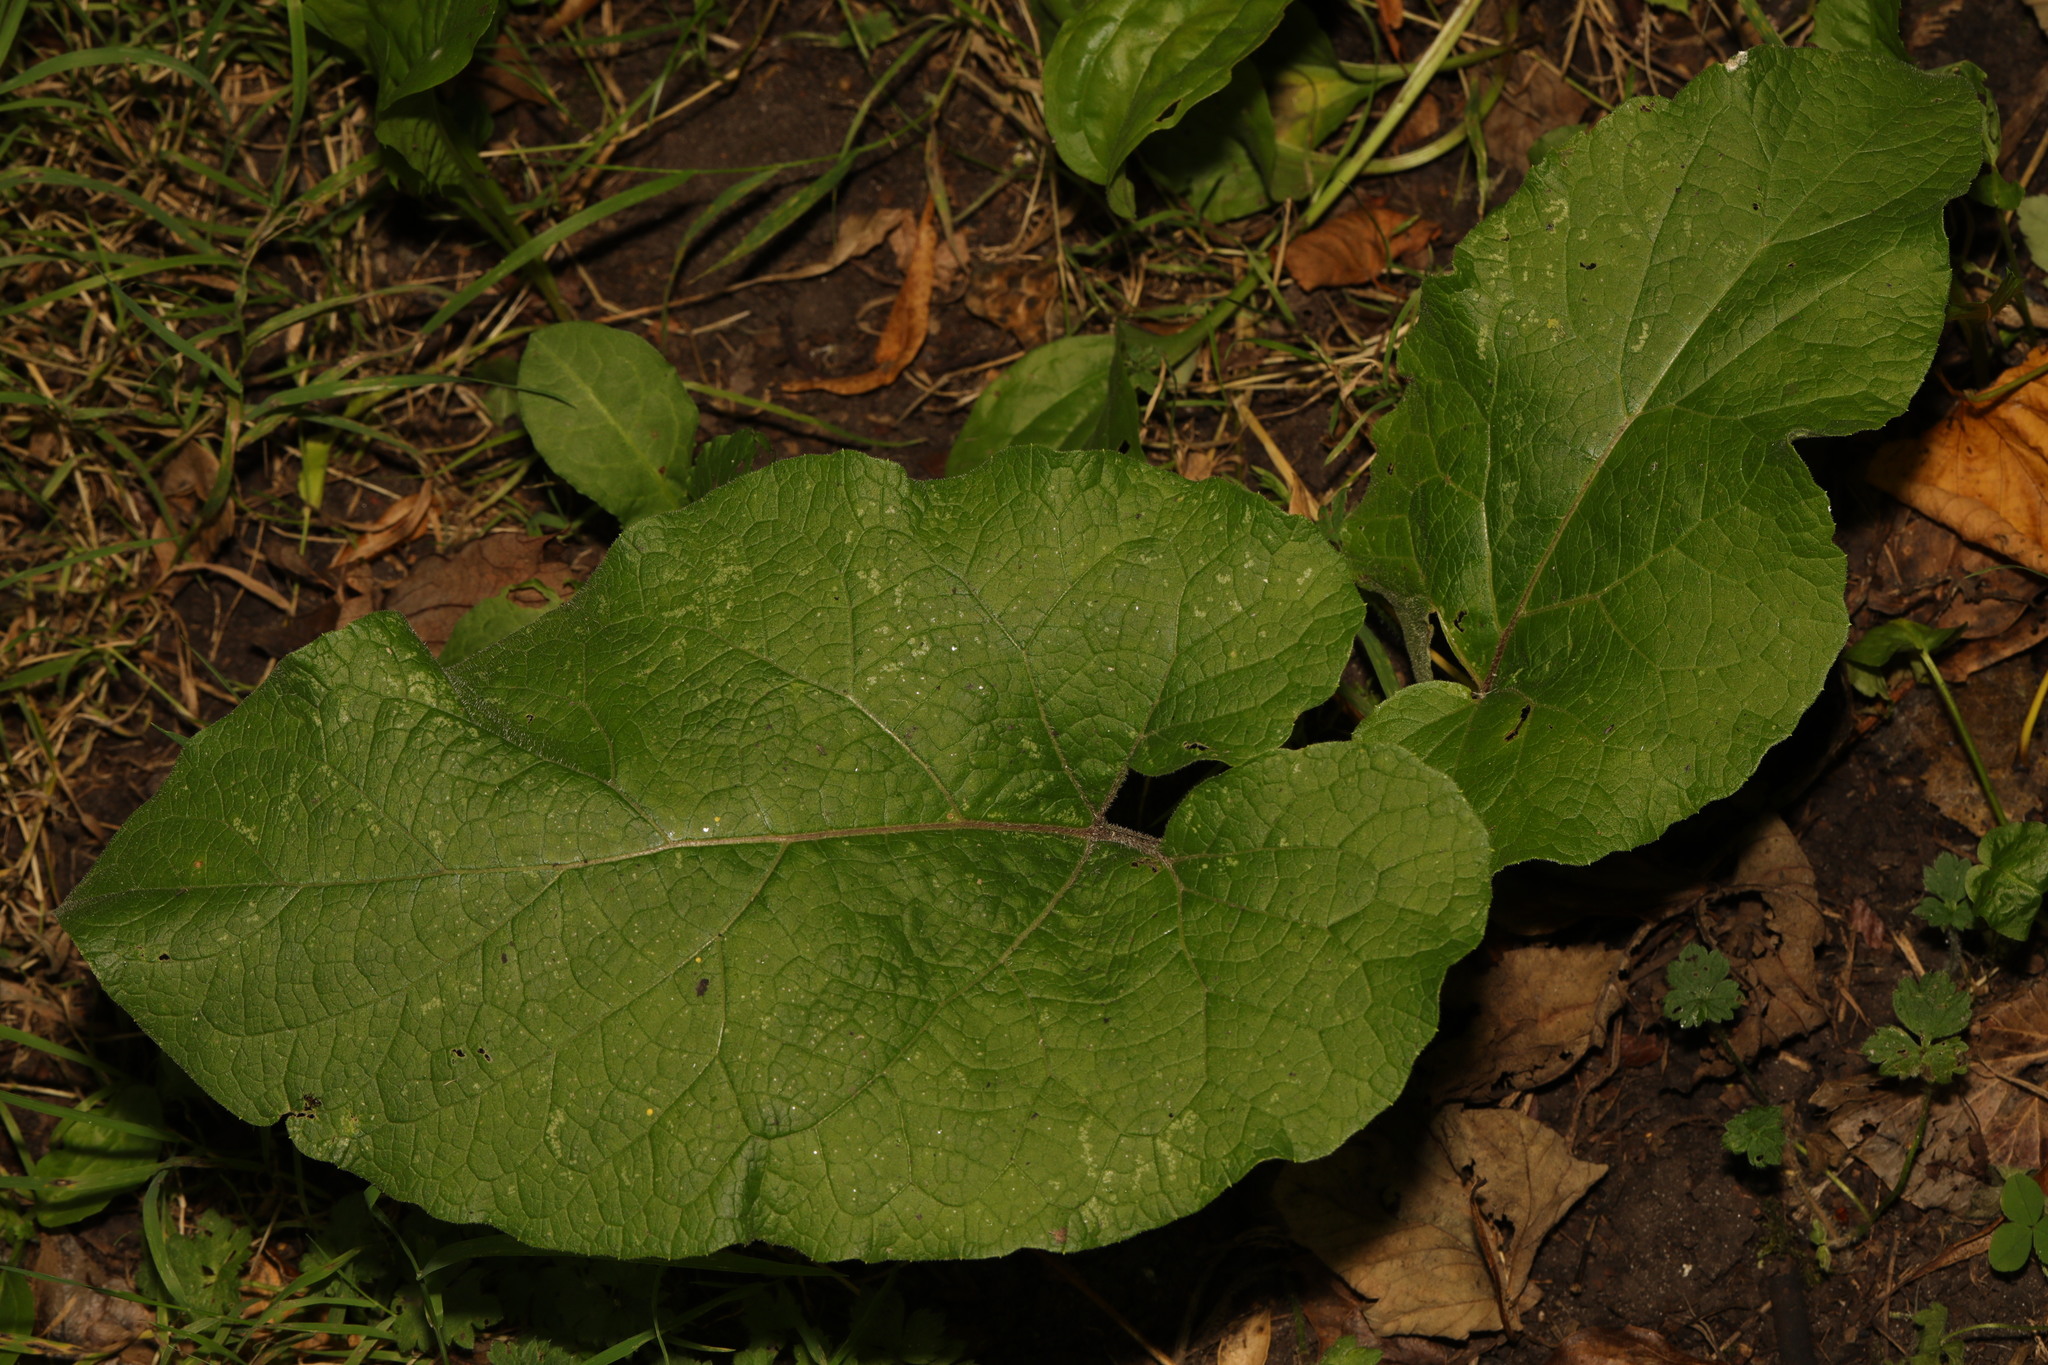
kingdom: Plantae
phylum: Tracheophyta
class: Magnoliopsida
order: Asterales
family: Asteraceae
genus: Arctium
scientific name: Arctium minus
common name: Lesser burdock
